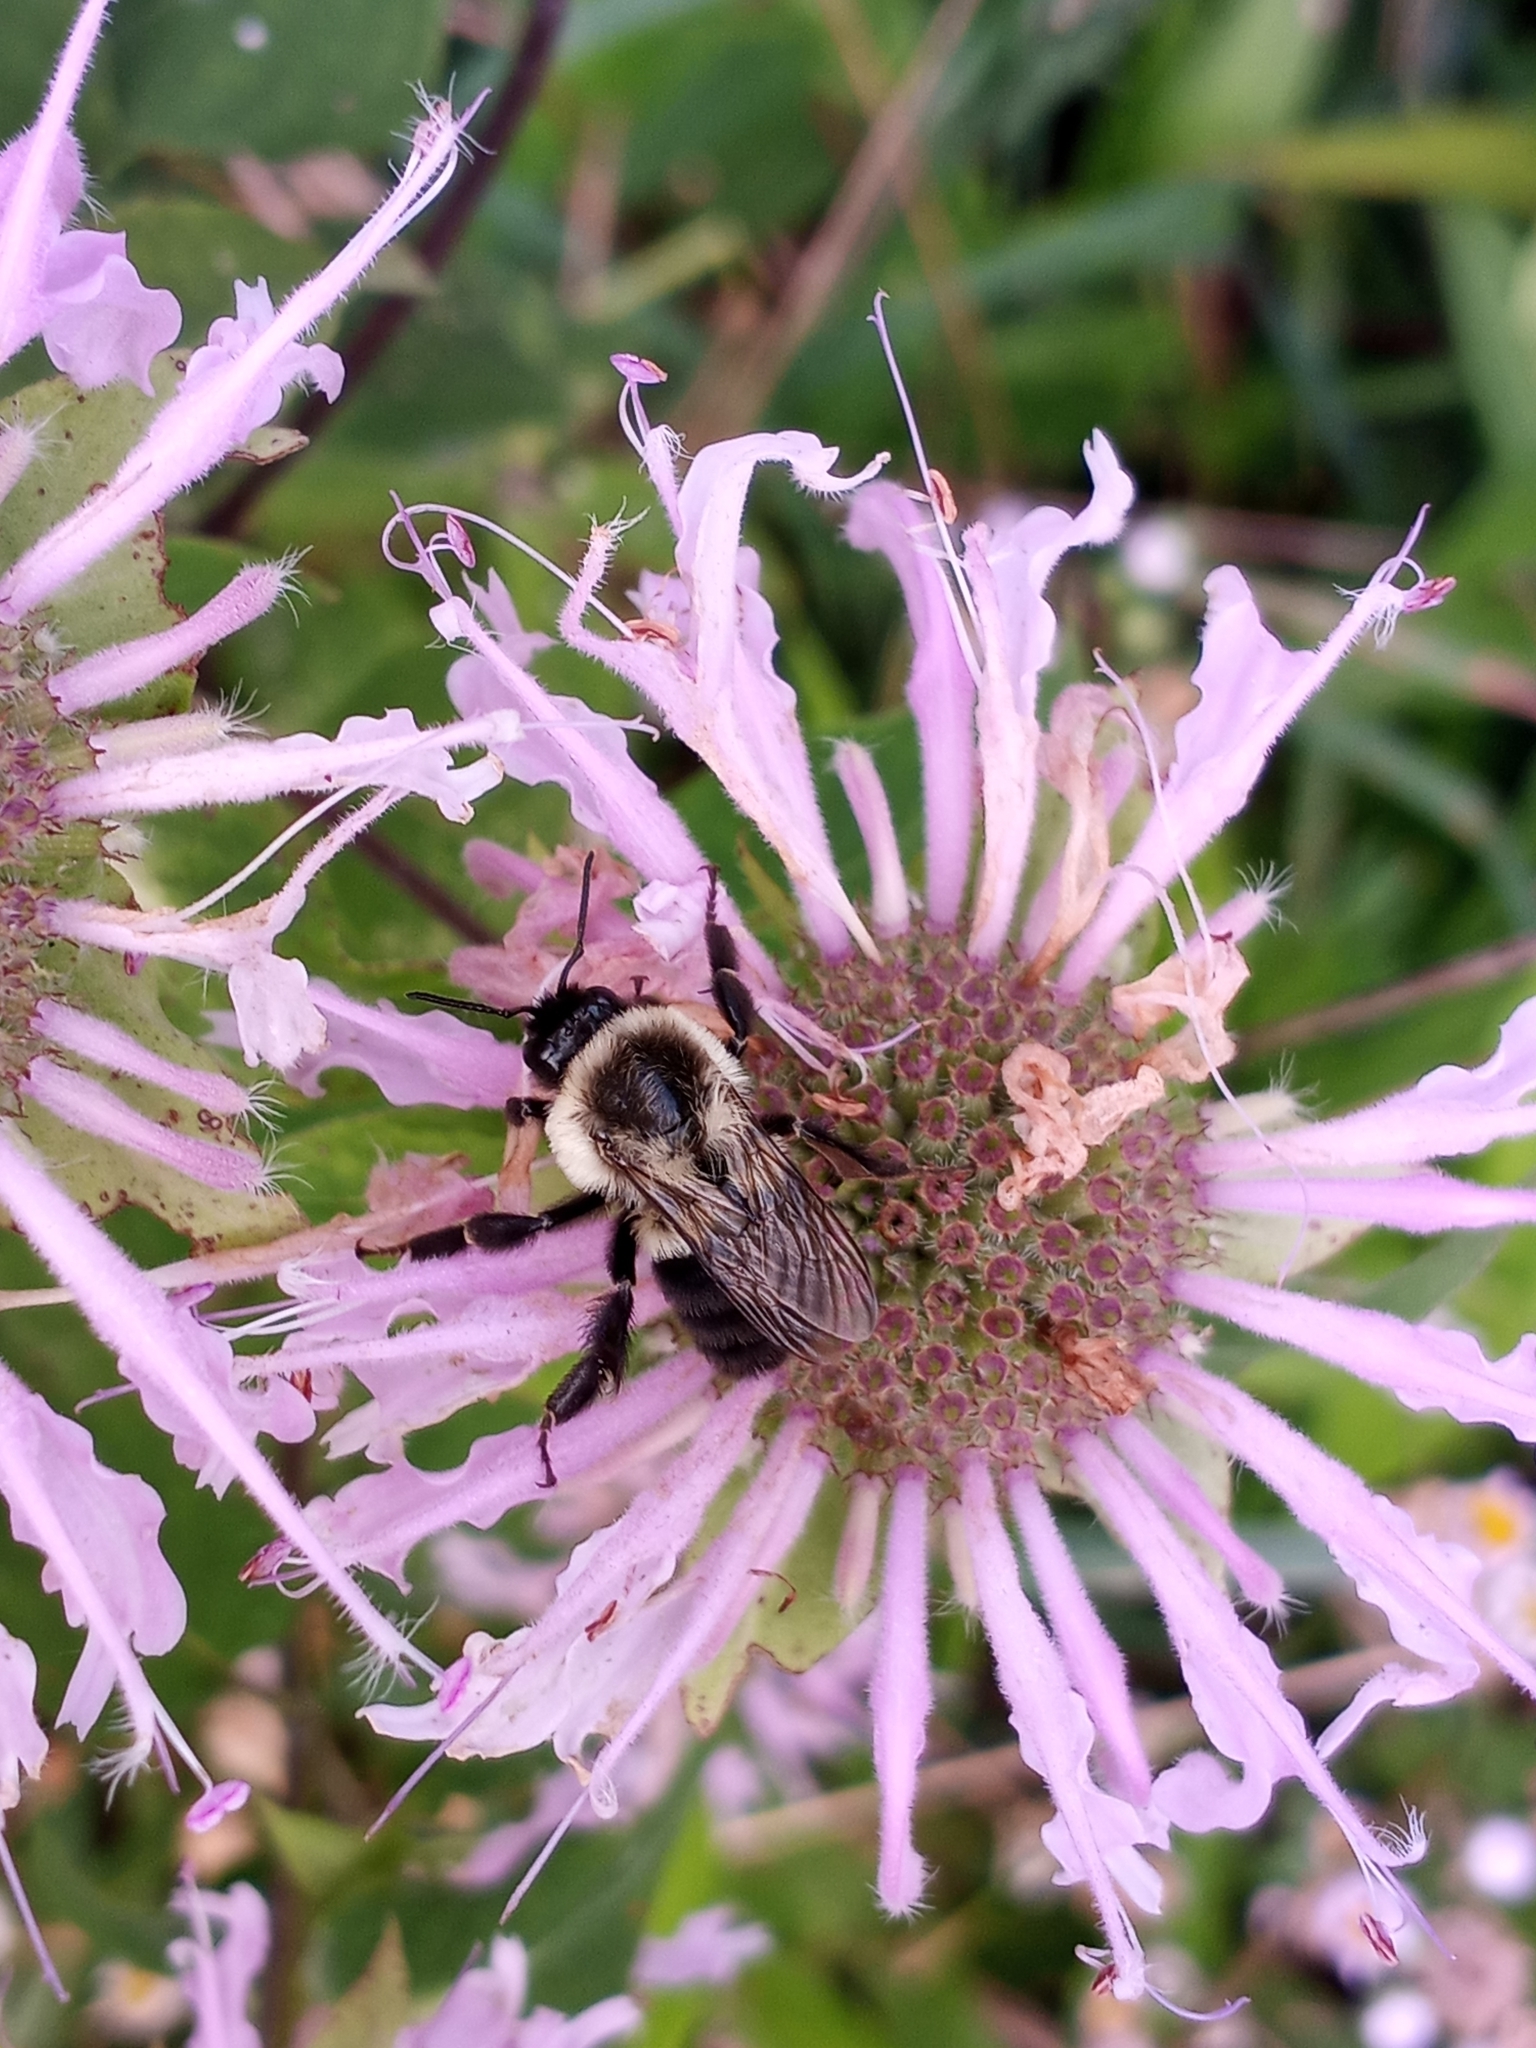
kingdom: Animalia
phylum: Arthropoda
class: Insecta
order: Hymenoptera
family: Apidae
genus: Bombus
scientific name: Bombus impatiens
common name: Common eastern bumble bee
